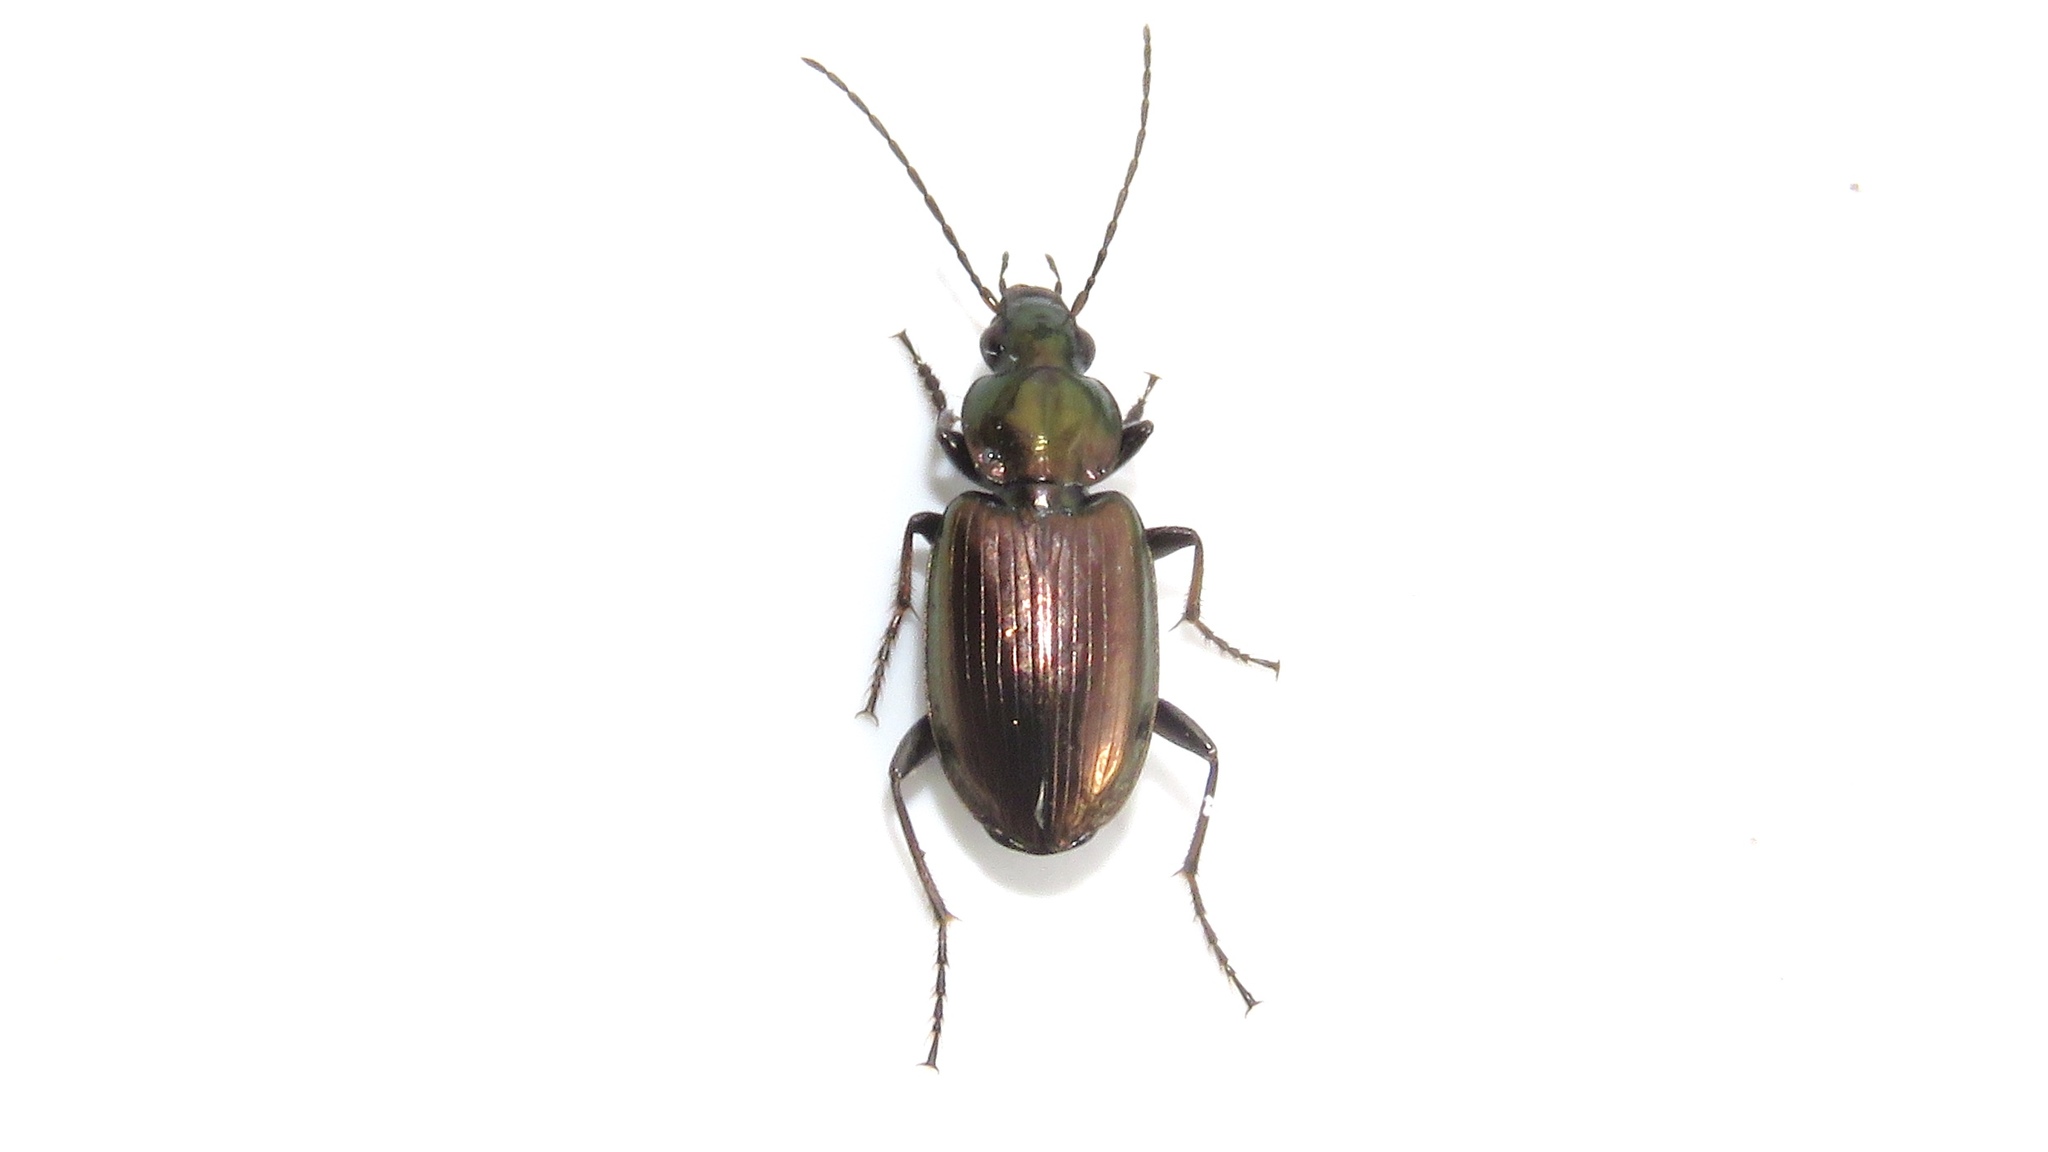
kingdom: Animalia
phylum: Arthropoda
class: Insecta
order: Coleoptera
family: Carabidae
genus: Agonum
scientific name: Agonum muelleri
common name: Müller's harp ground beetle
